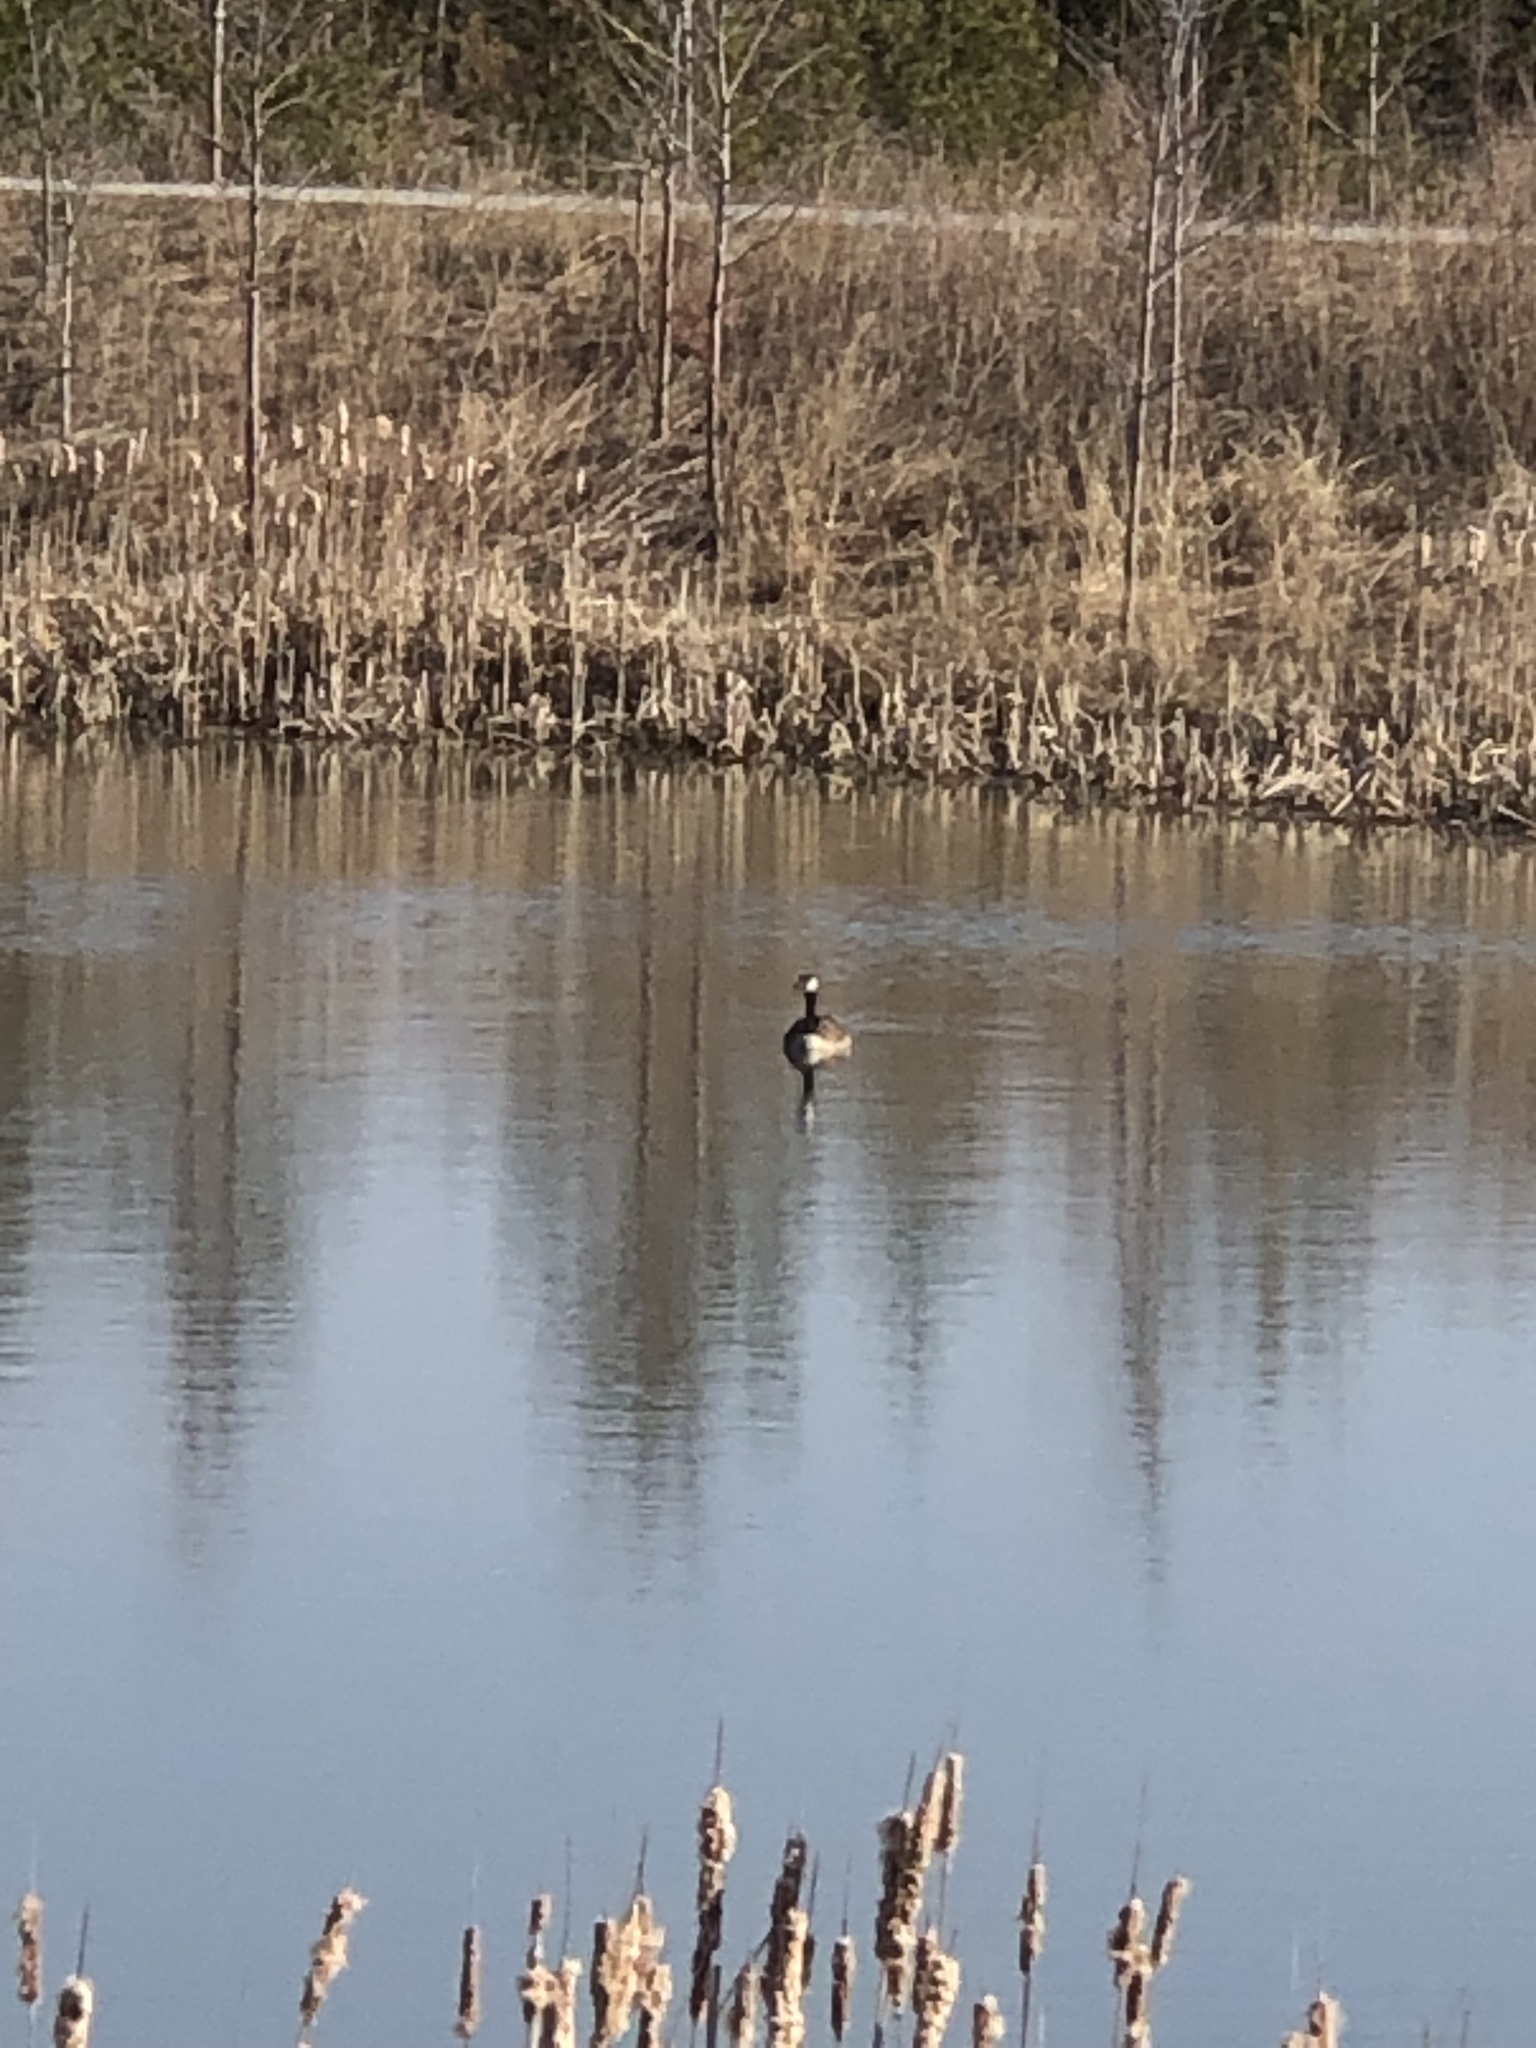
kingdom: Animalia
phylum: Chordata
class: Aves
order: Anseriformes
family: Anatidae
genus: Branta
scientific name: Branta canadensis
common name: Canada goose
